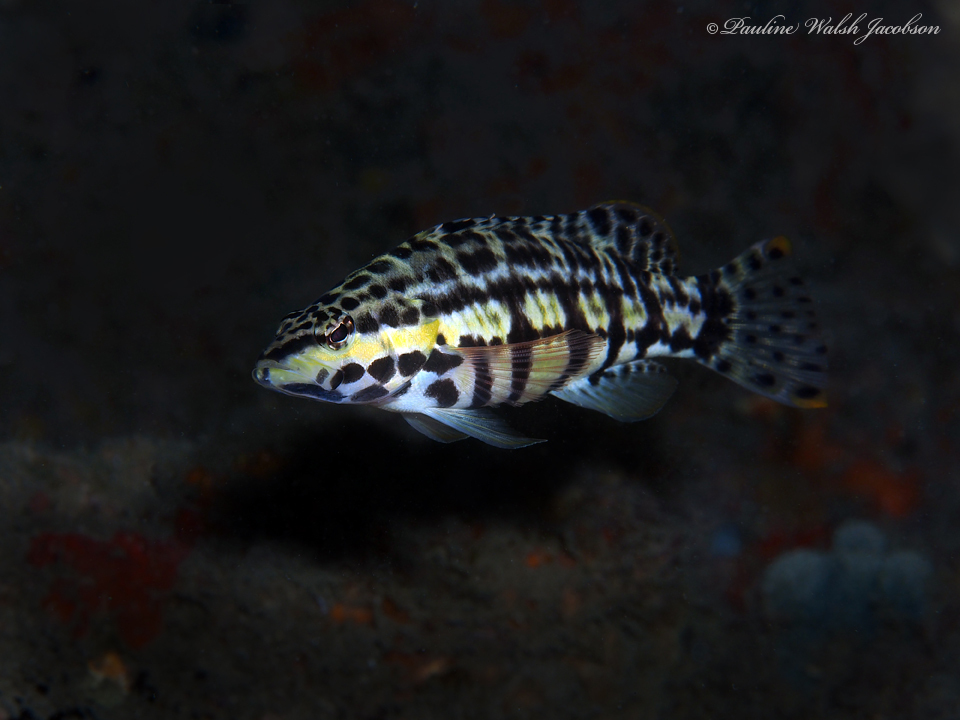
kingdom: Animalia
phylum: Chordata
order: Perciformes
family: Serranidae
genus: Serranus
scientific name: Serranus tigrinus
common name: Harlequin bass
